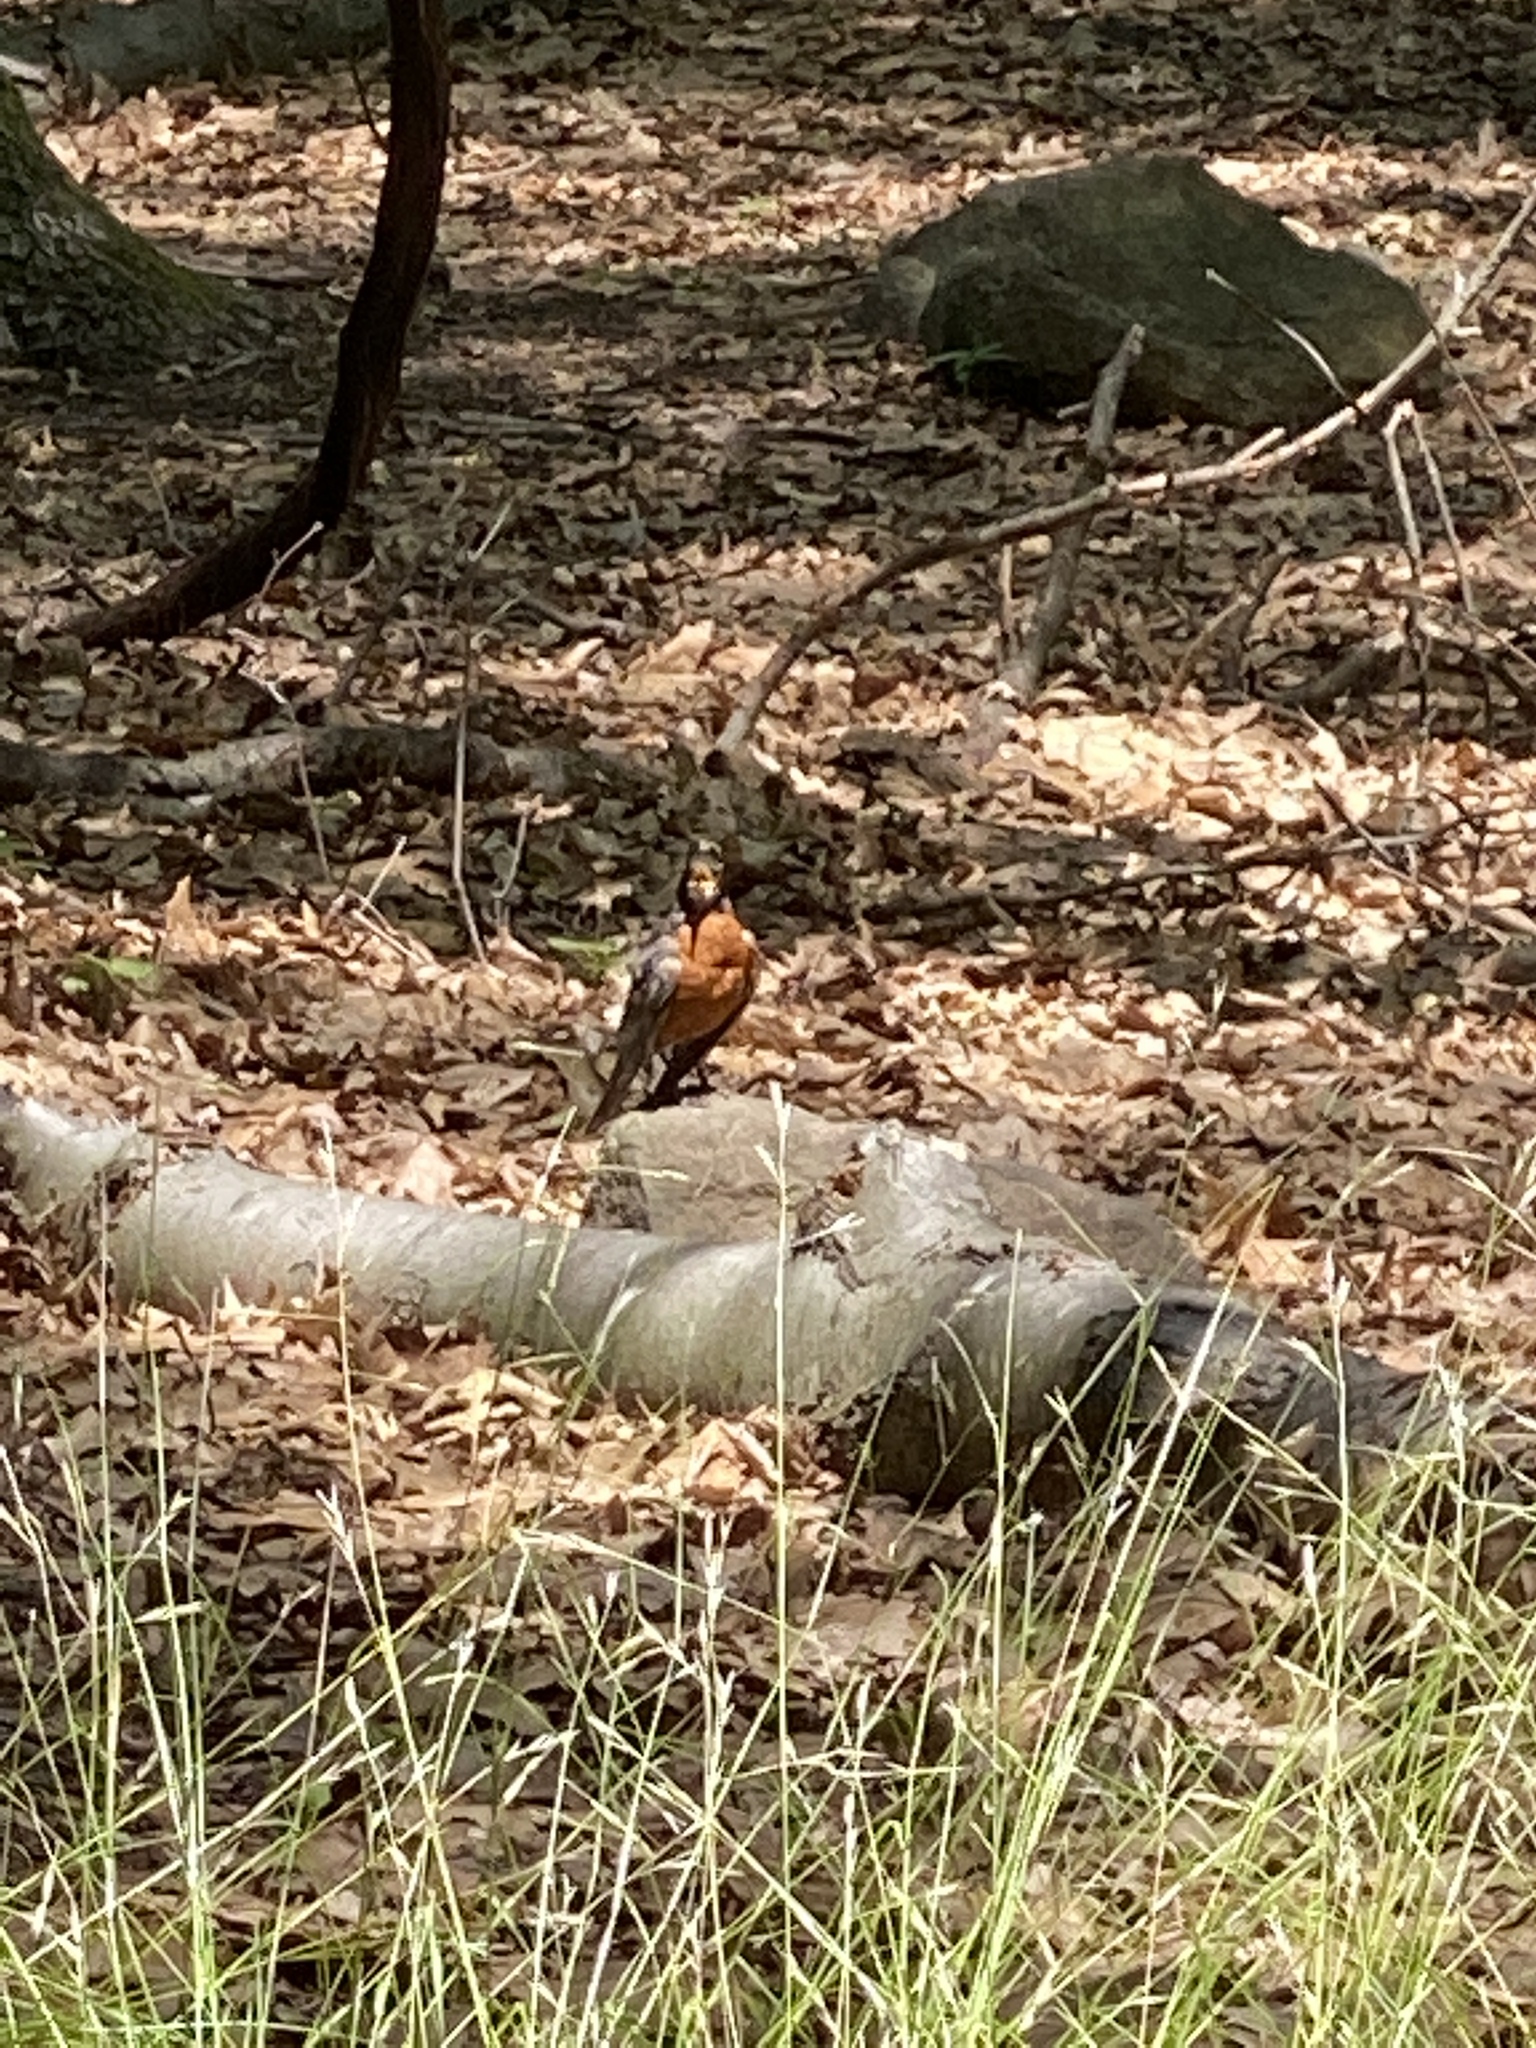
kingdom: Animalia
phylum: Chordata
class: Aves
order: Passeriformes
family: Turdidae
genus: Turdus
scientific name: Turdus migratorius
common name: American robin
